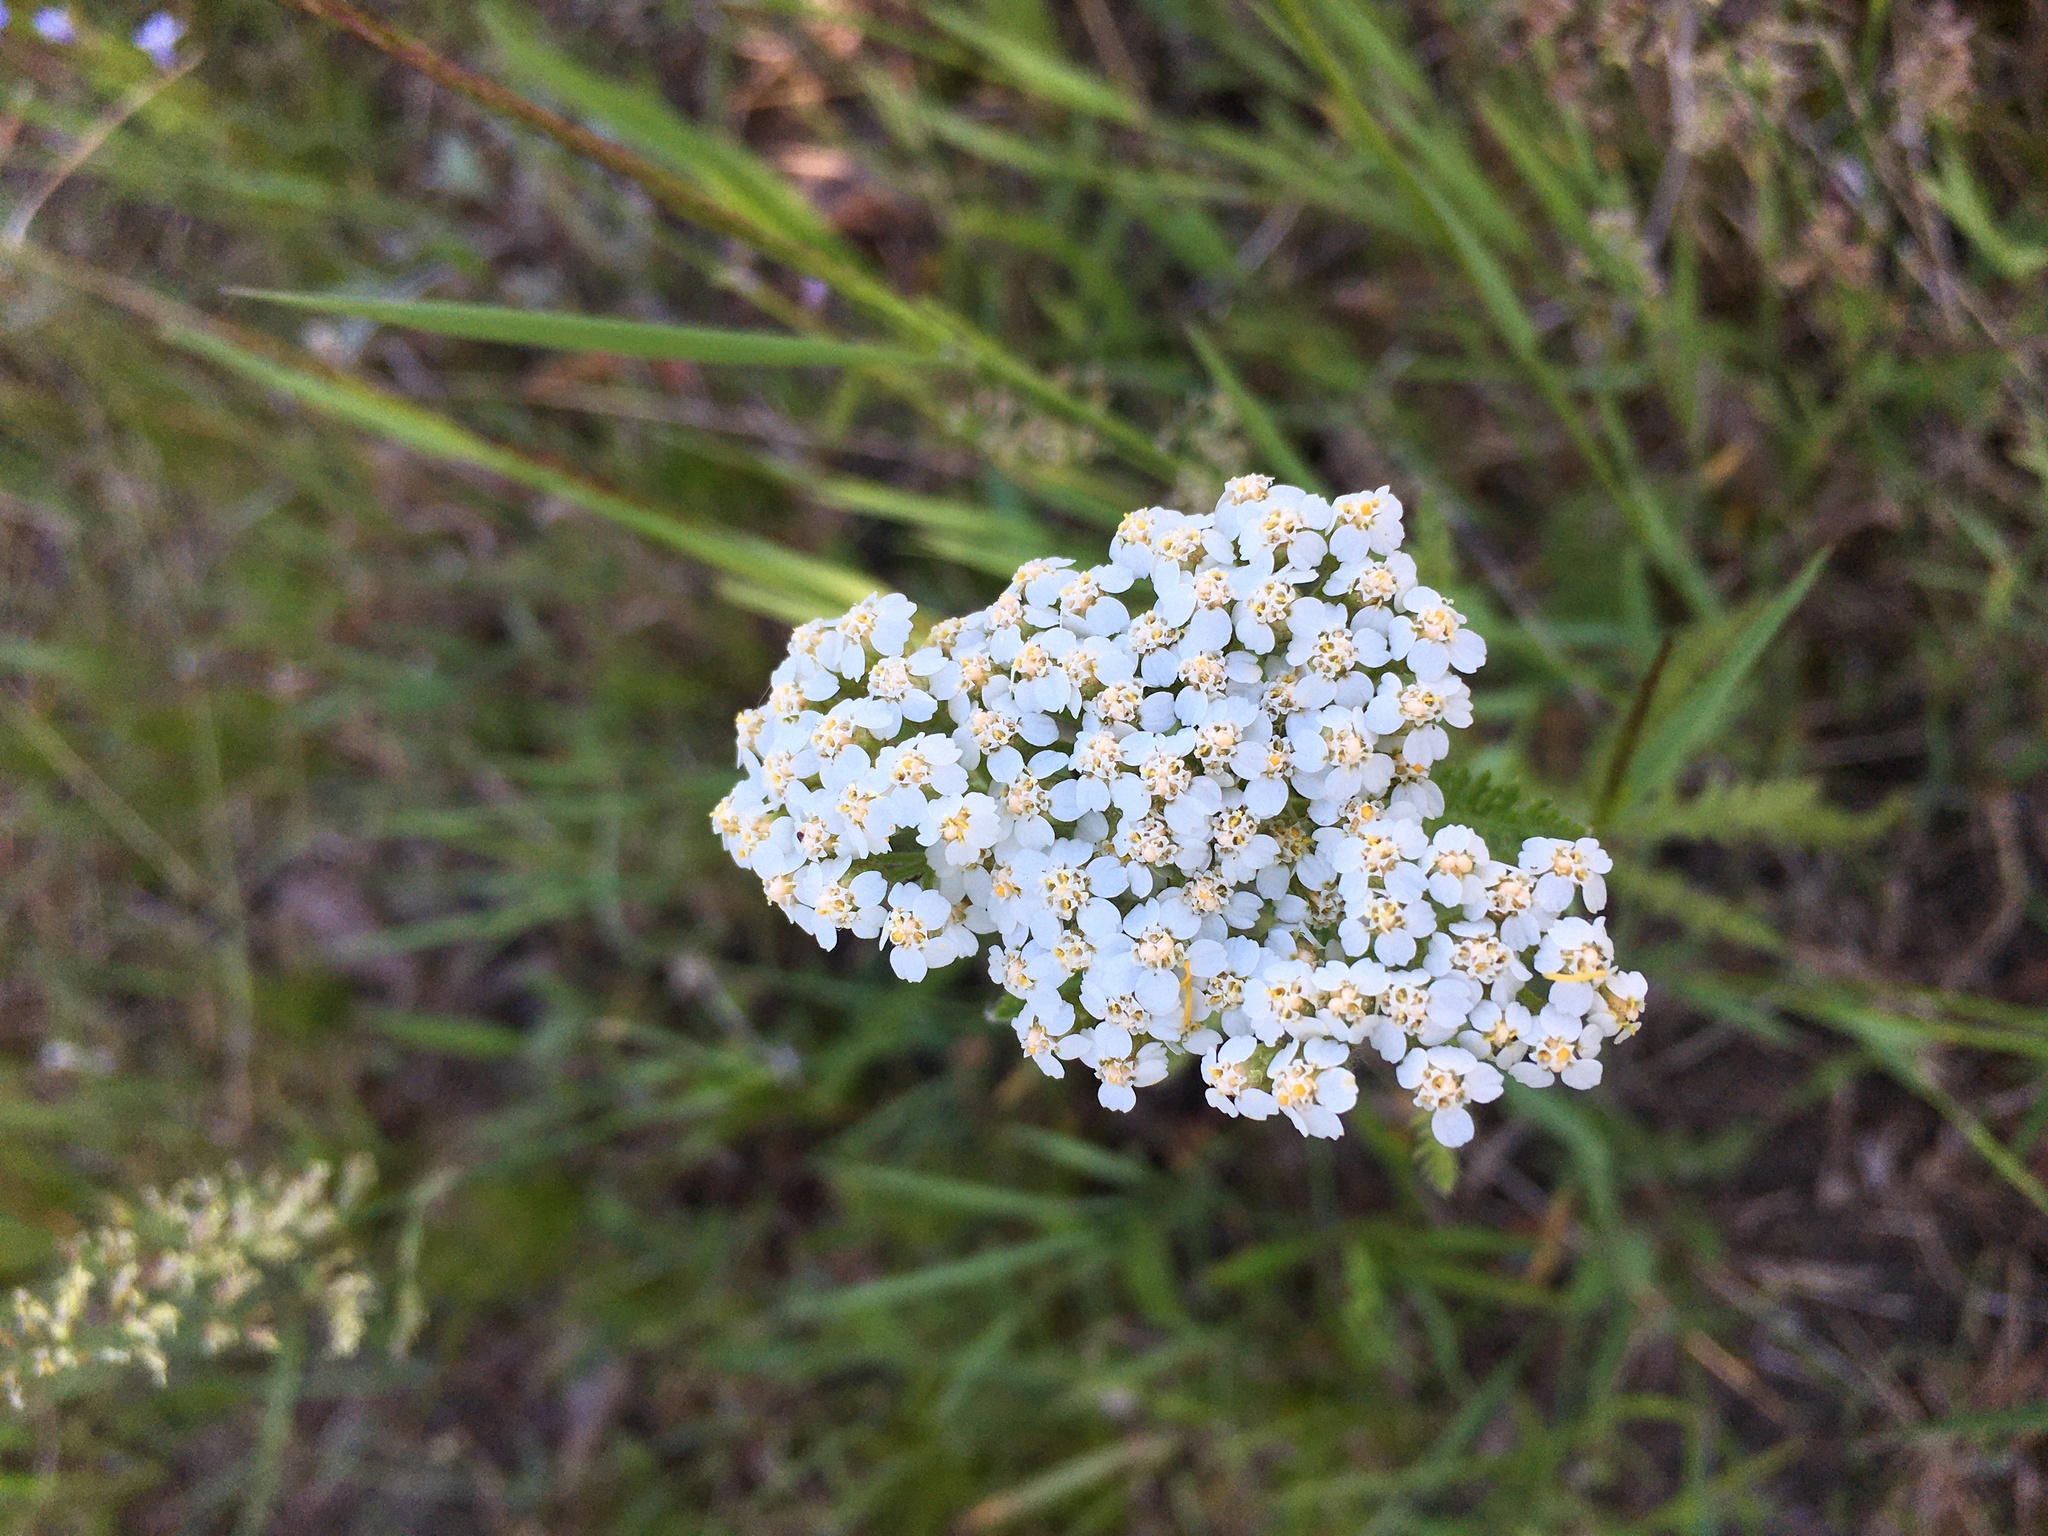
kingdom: Plantae
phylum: Tracheophyta
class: Magnoliopsida
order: Asterales
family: Asteraceae
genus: Achillea
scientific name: Achillea millefolium
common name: Yarrow
